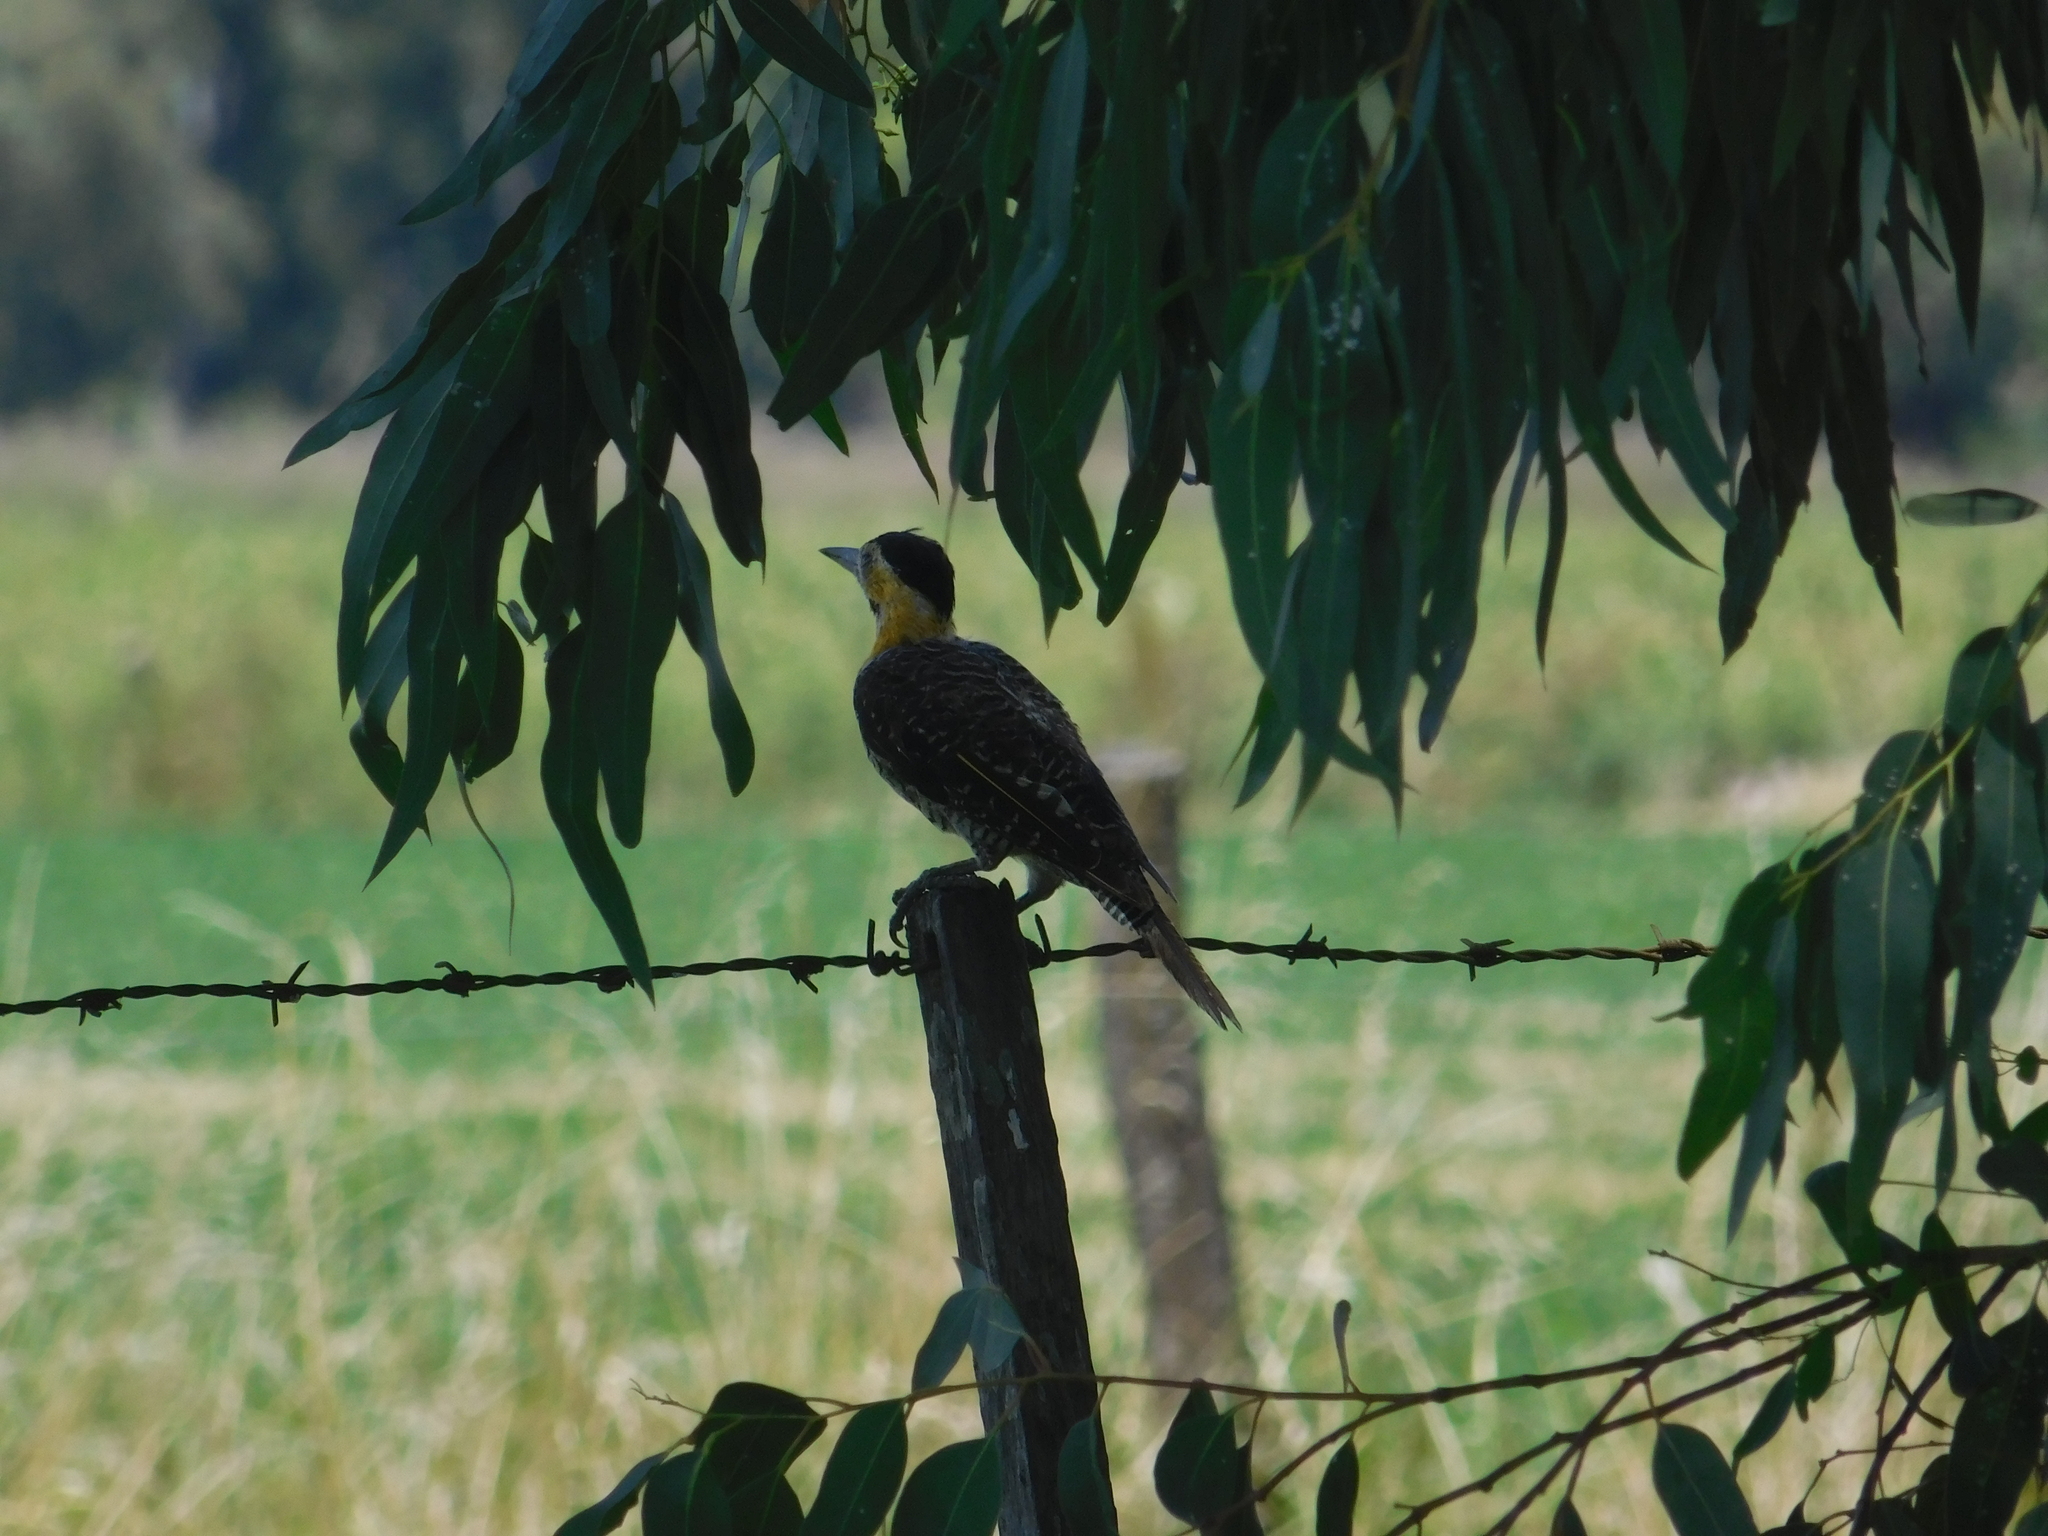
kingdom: Animalia
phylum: Chordata
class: Aves
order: Piciformes
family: Picidae
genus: Colaptes
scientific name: Colaptes campestris
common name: Campo flicker
